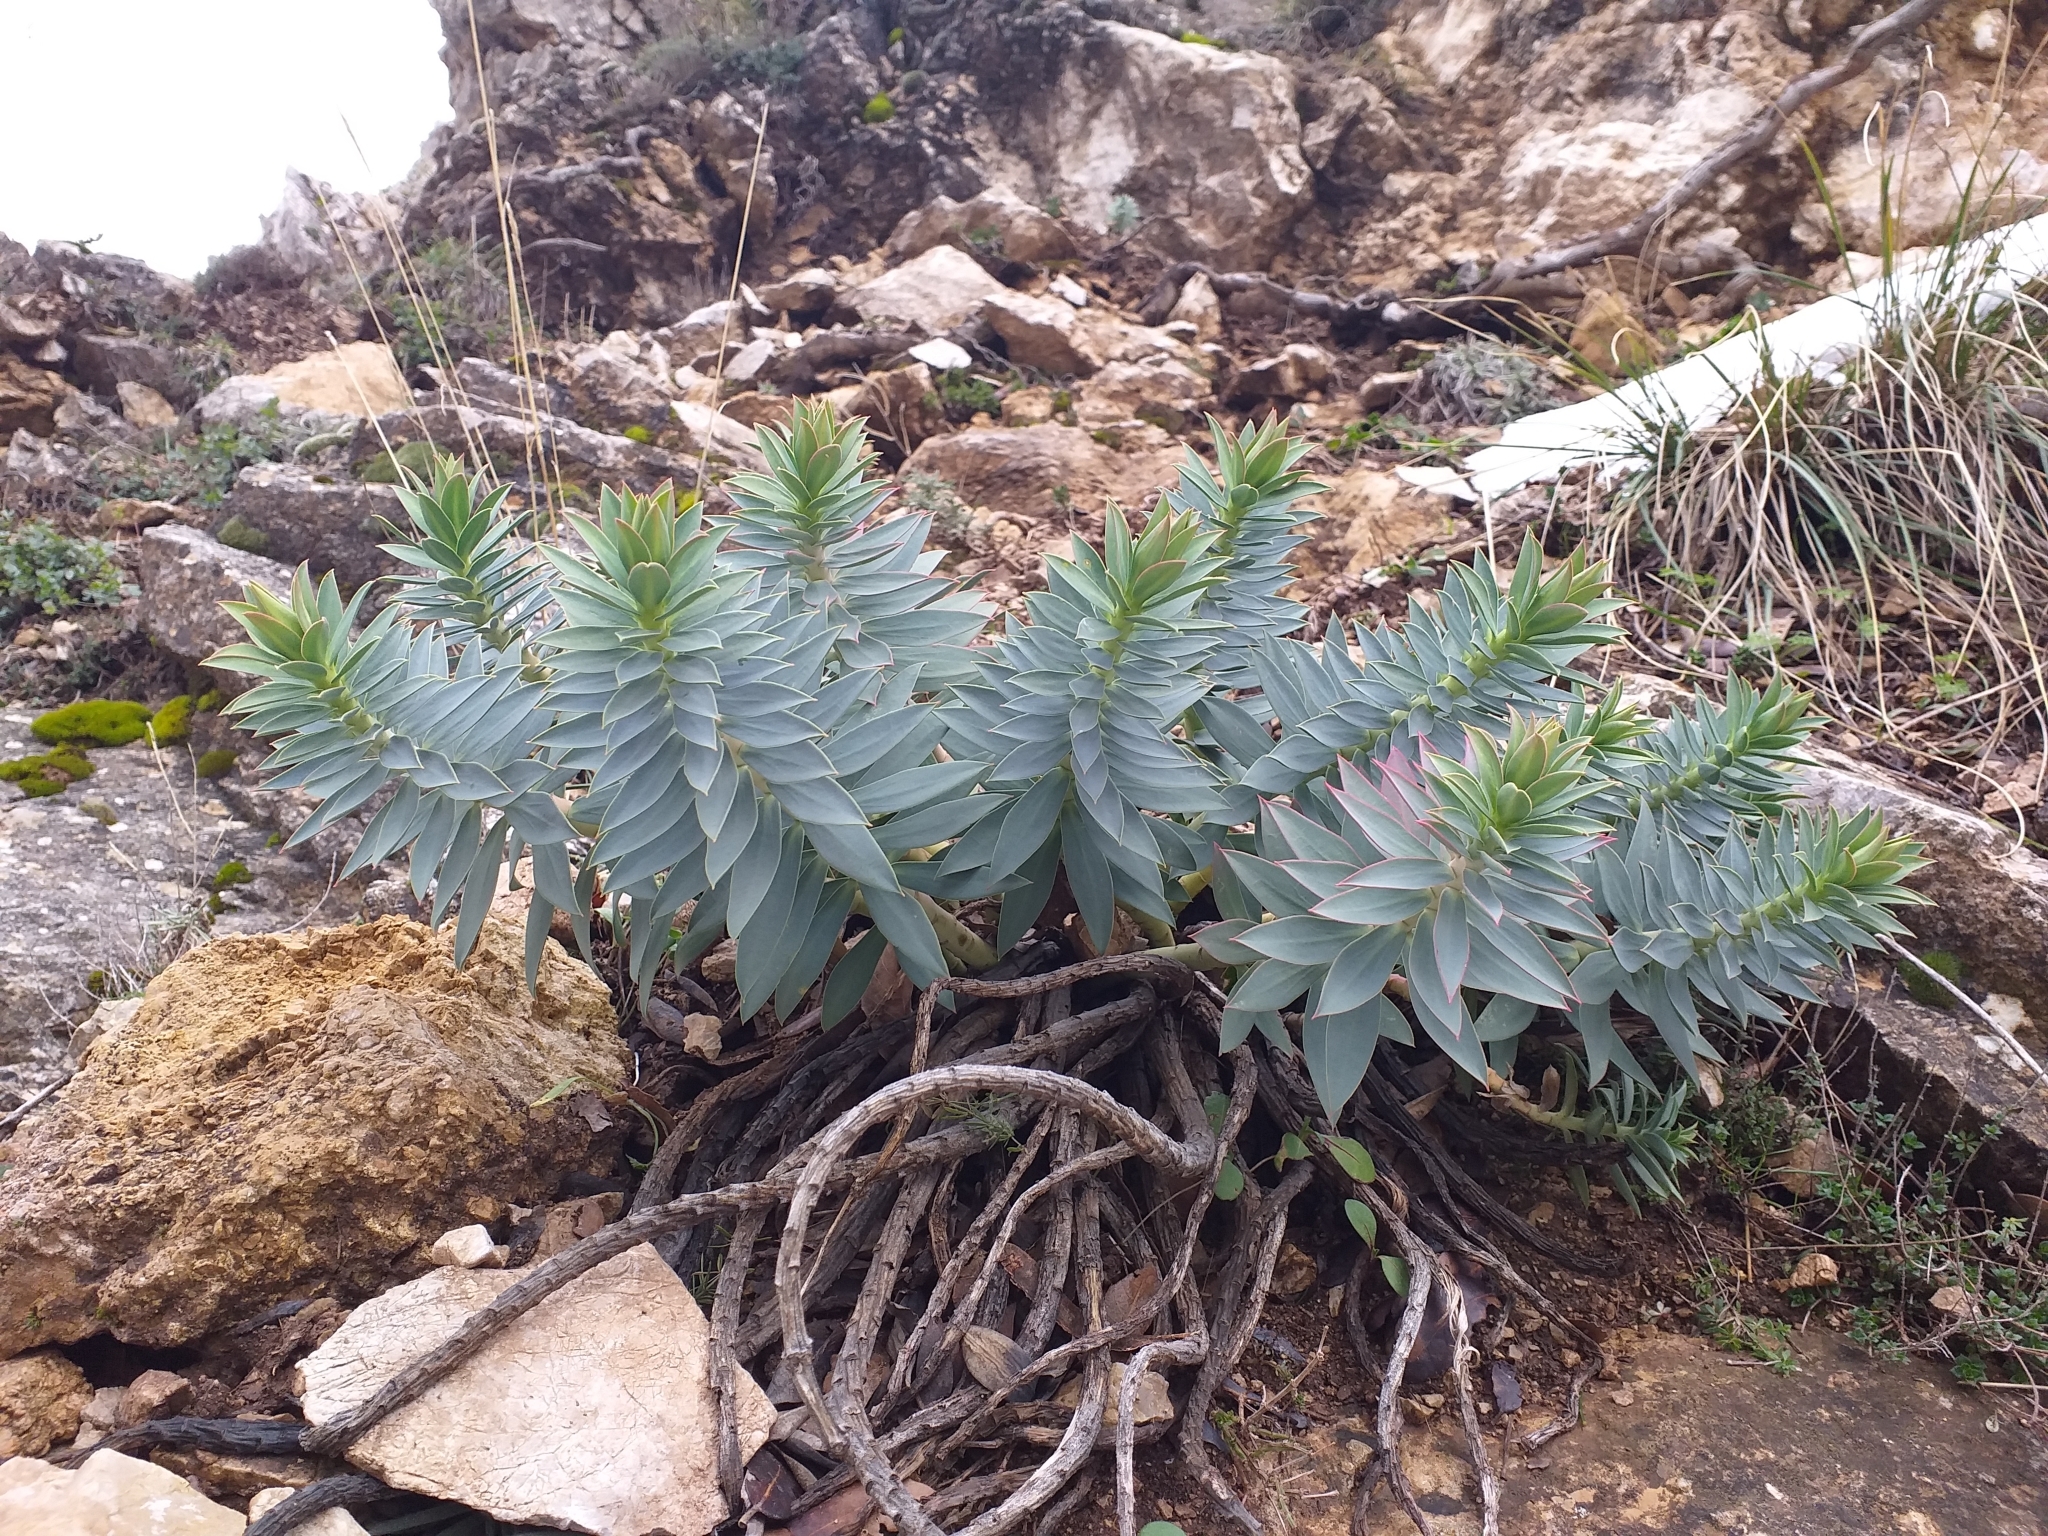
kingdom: Plantae
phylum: Tracheophyta
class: Magnoliopsida
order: Malpighiales
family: Euphorbiaceae
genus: Euphorbia
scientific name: Euphorbia rigida
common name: Upright myrtle spurge
